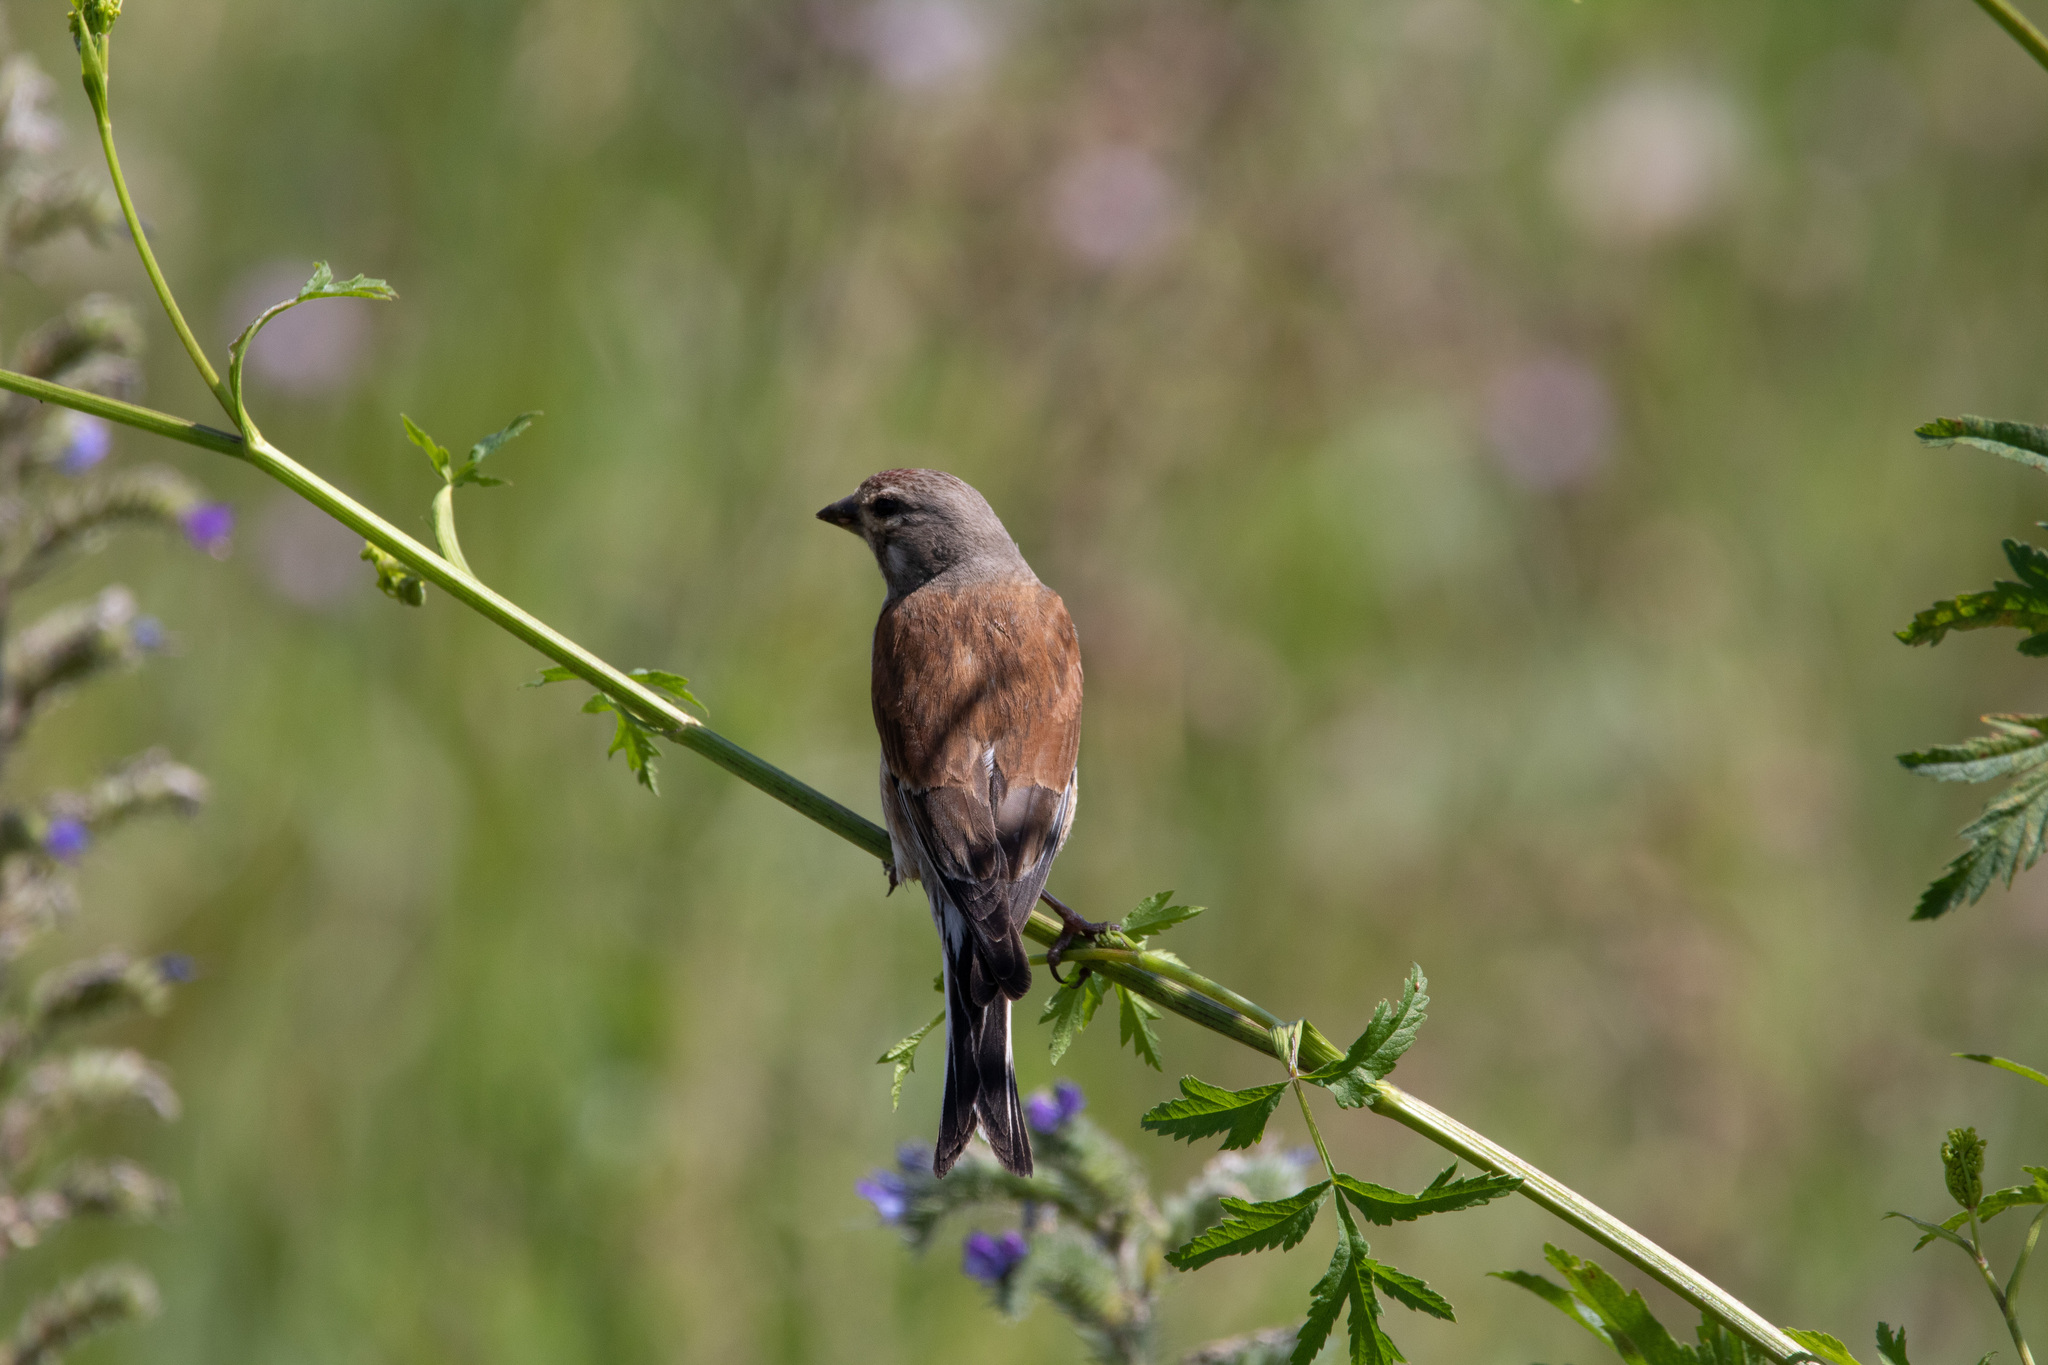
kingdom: Animalia
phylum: Chordata
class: Aves
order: Passeriformes
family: Fringillidae
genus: Linaria
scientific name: Linaria cannabina
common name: Common linnet
